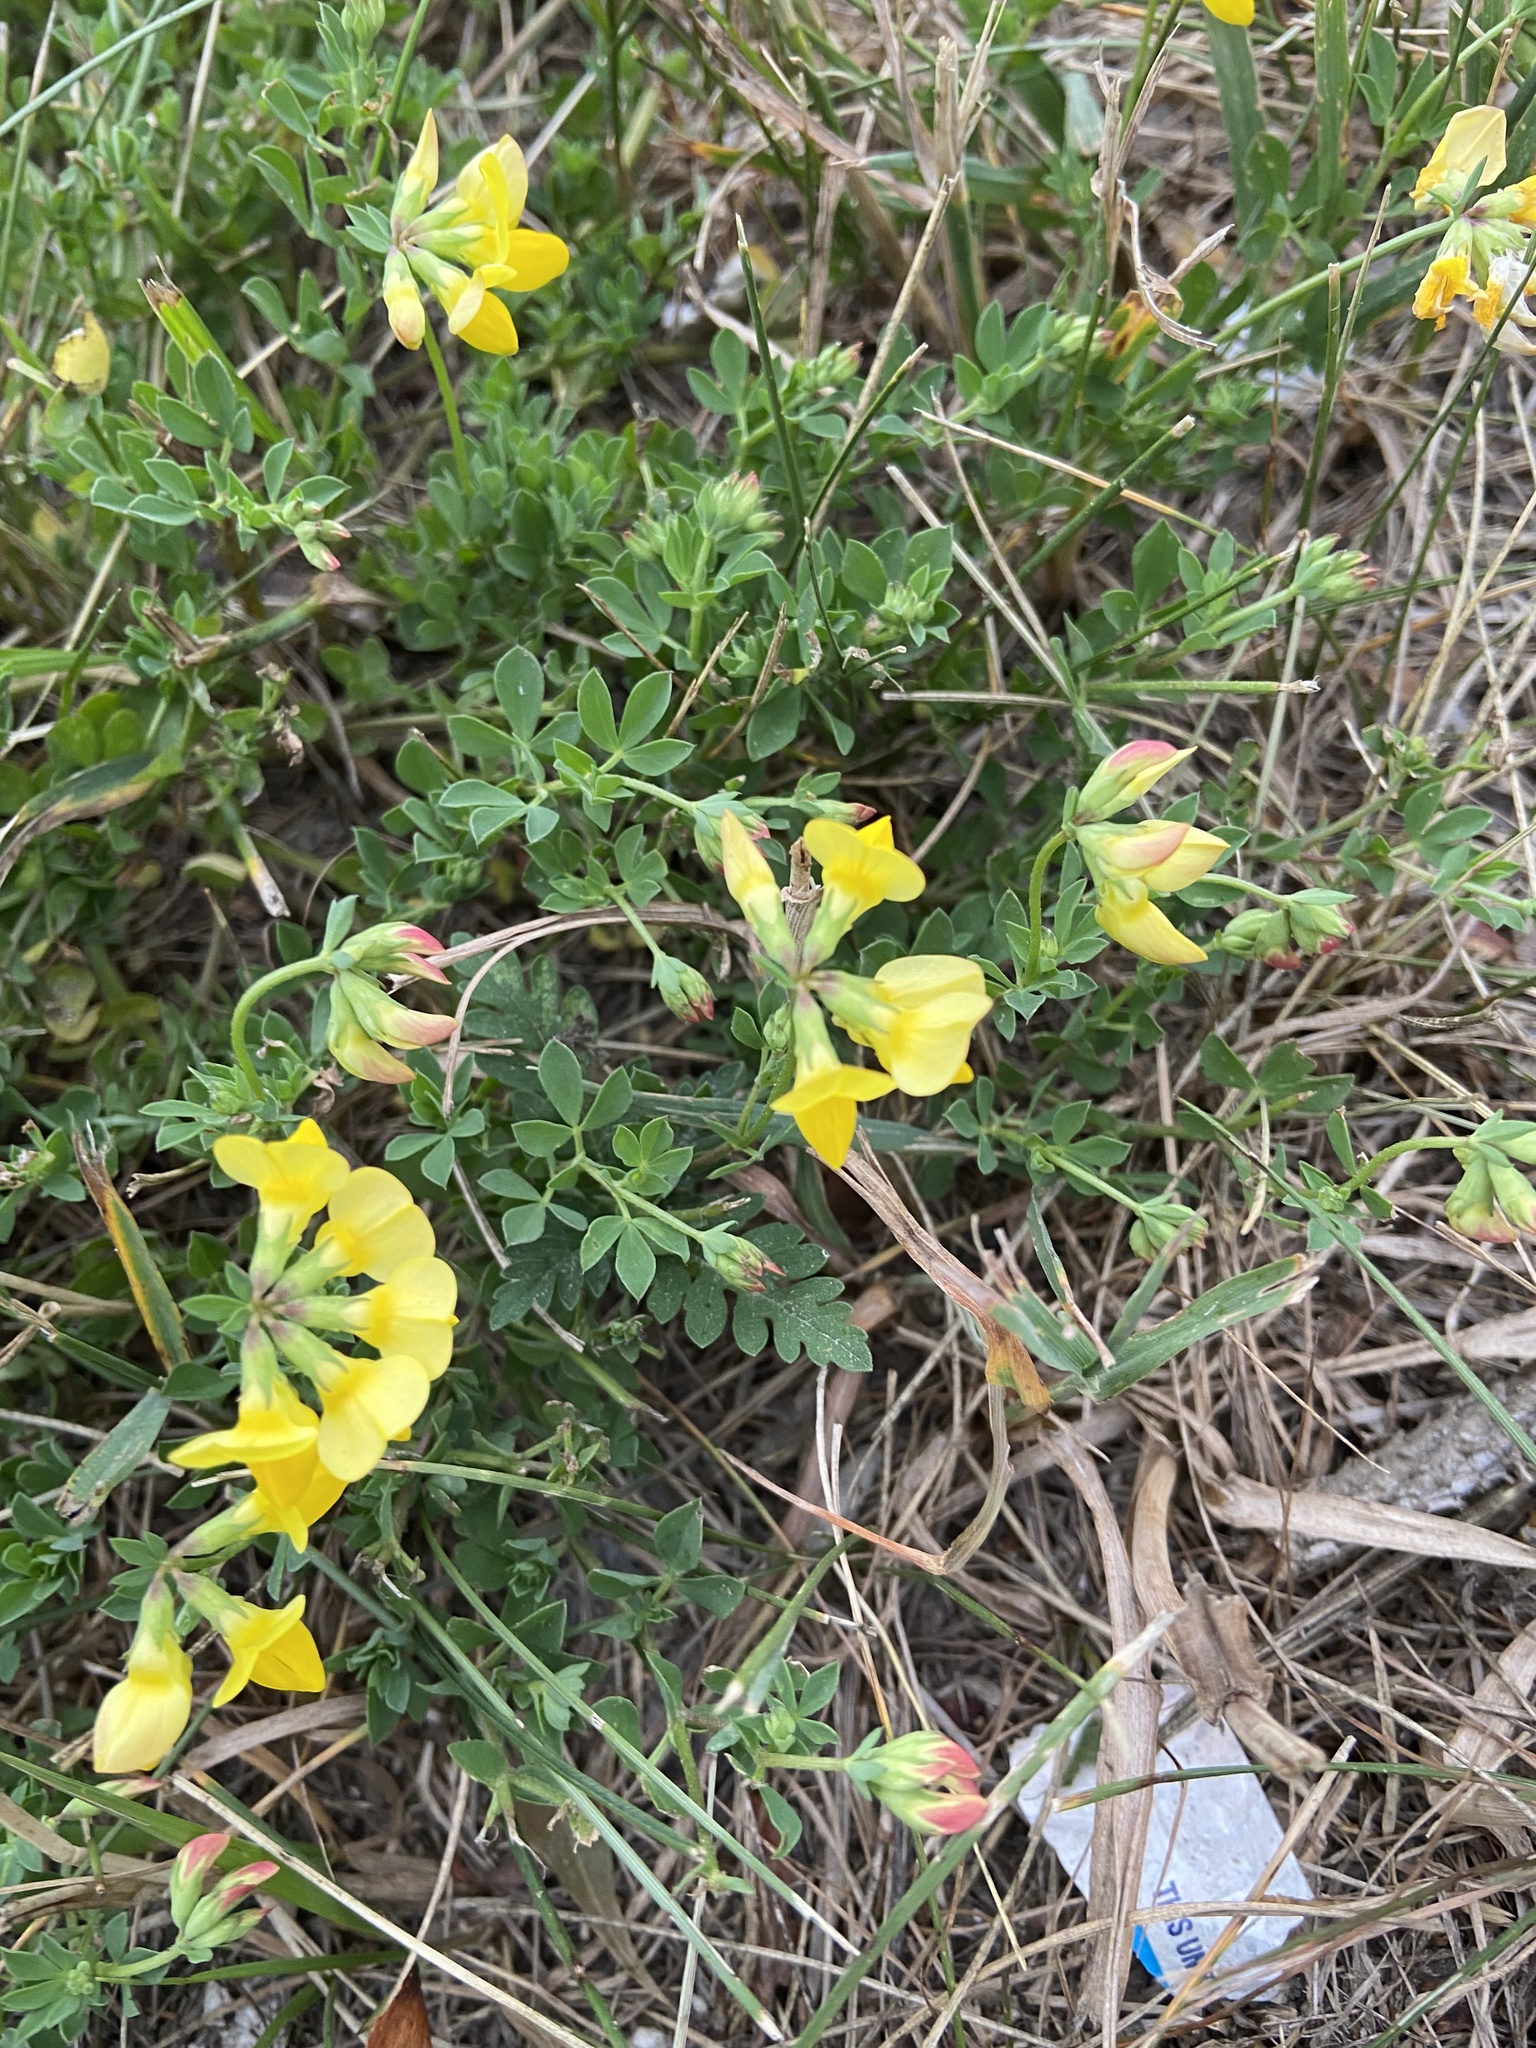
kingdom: Plantae
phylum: Tracheophyta
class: Magnoliopsida
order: Fabales
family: Fabaceae
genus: Lotus
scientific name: Lotus corniculatus
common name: Common bird's-foot-trefoil
